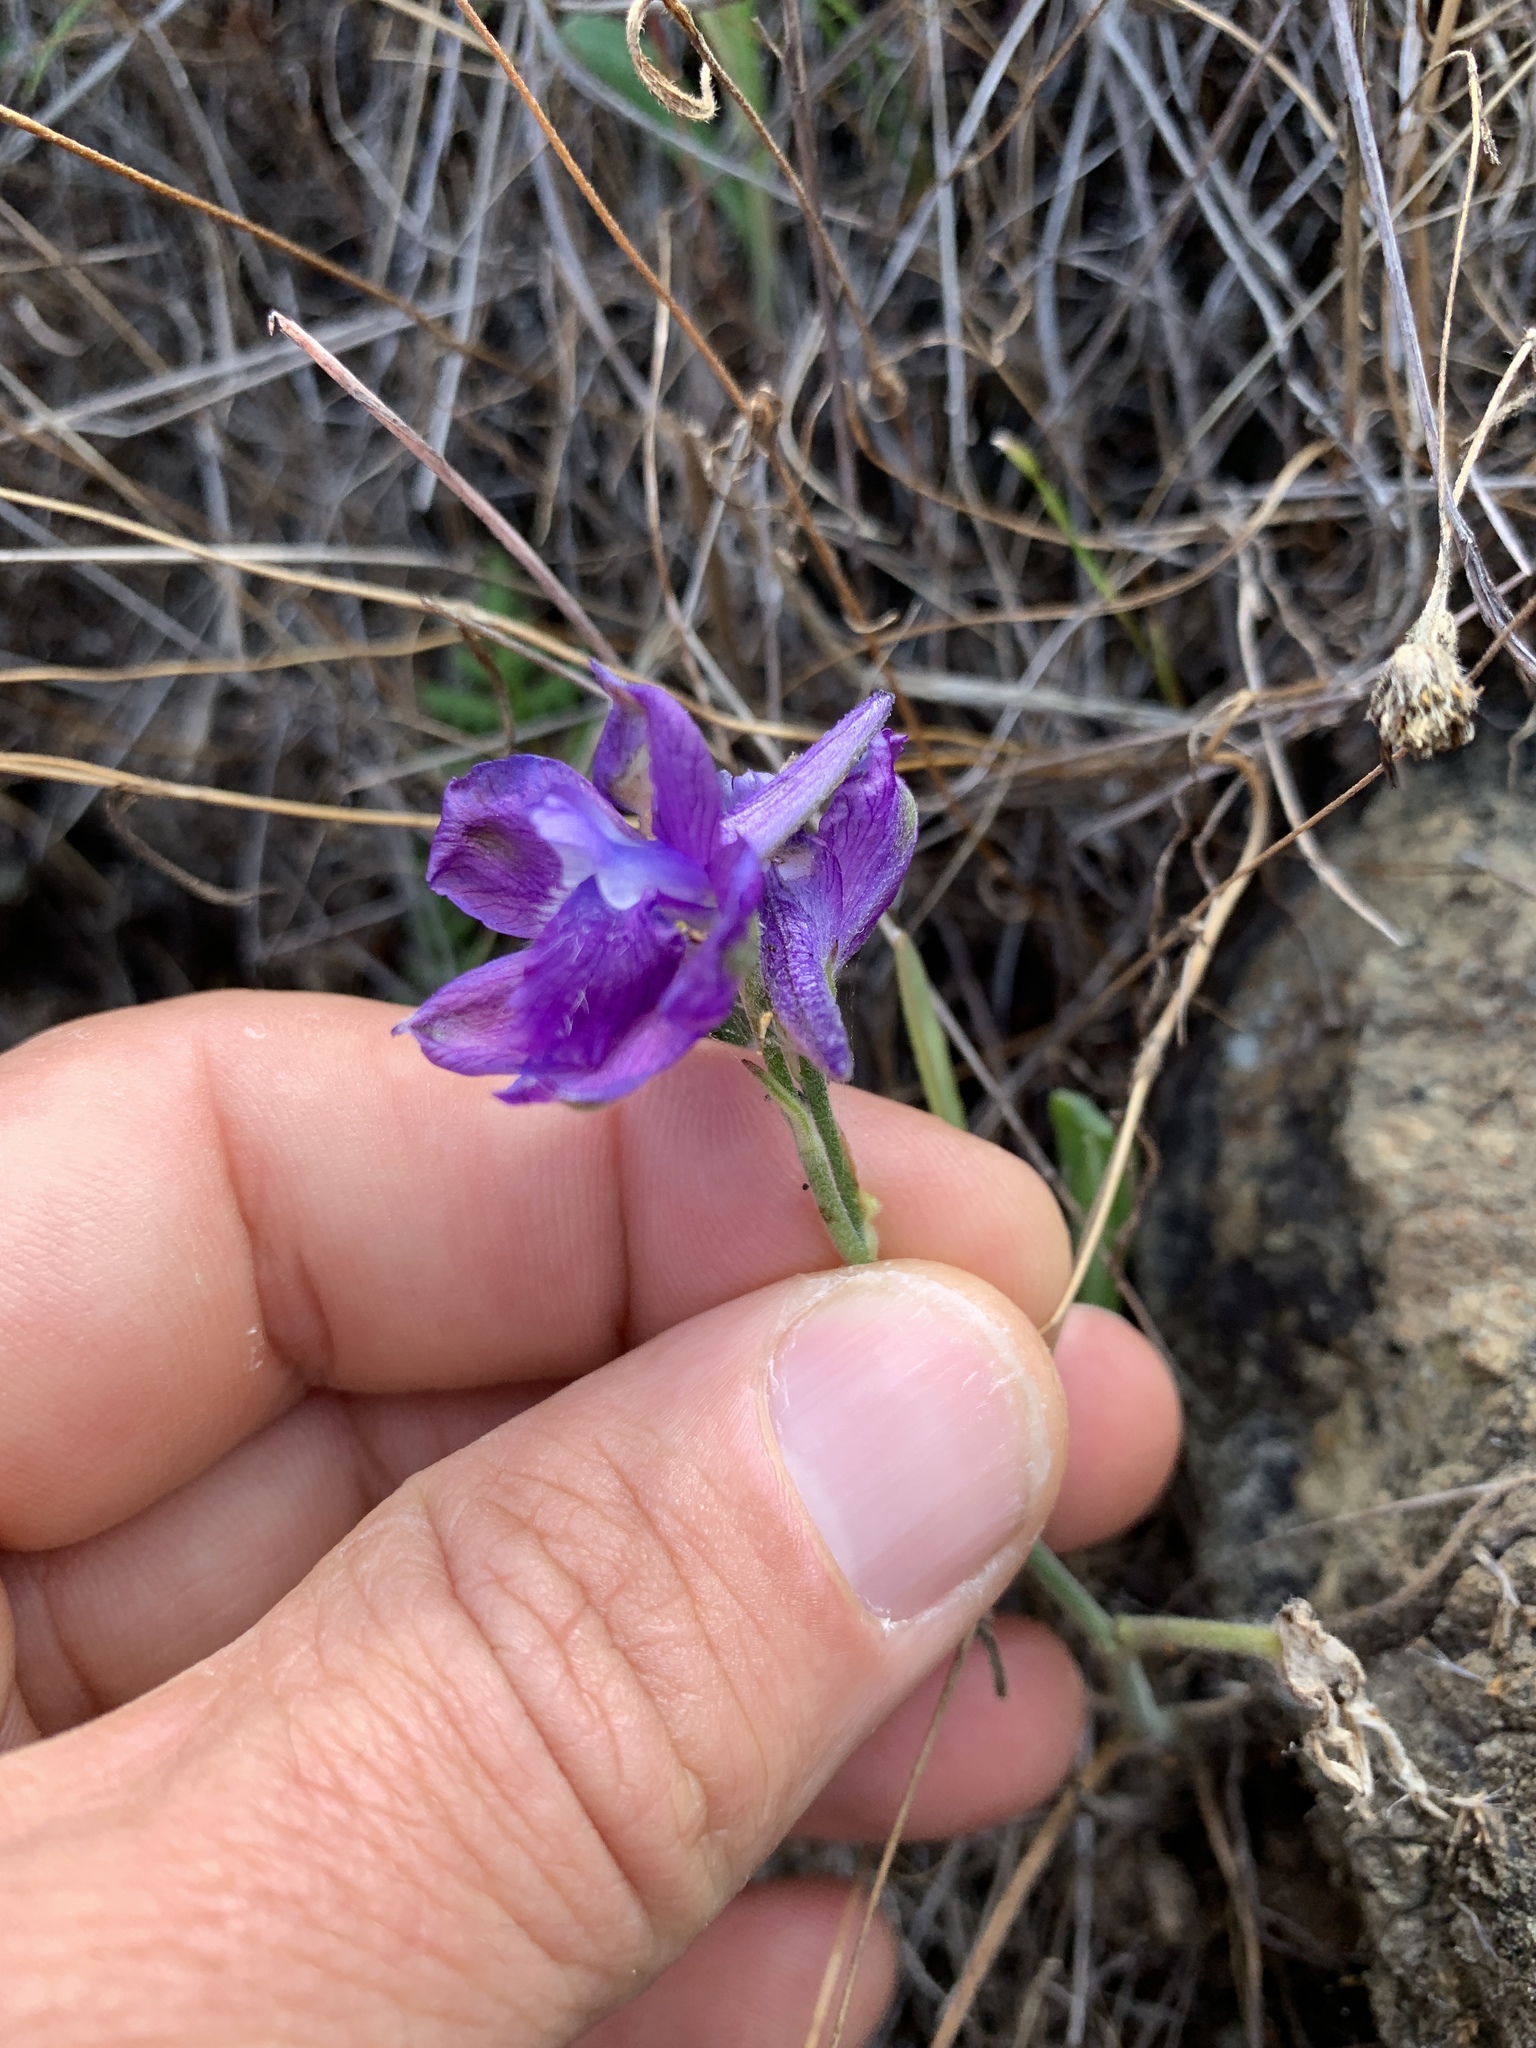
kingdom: Plantae
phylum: Tracheophyta
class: Magnoliopsida
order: Ranunculales
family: Ranunculaceae
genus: Delphinium
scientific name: Delphinium hesperium
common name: Western larkspur
